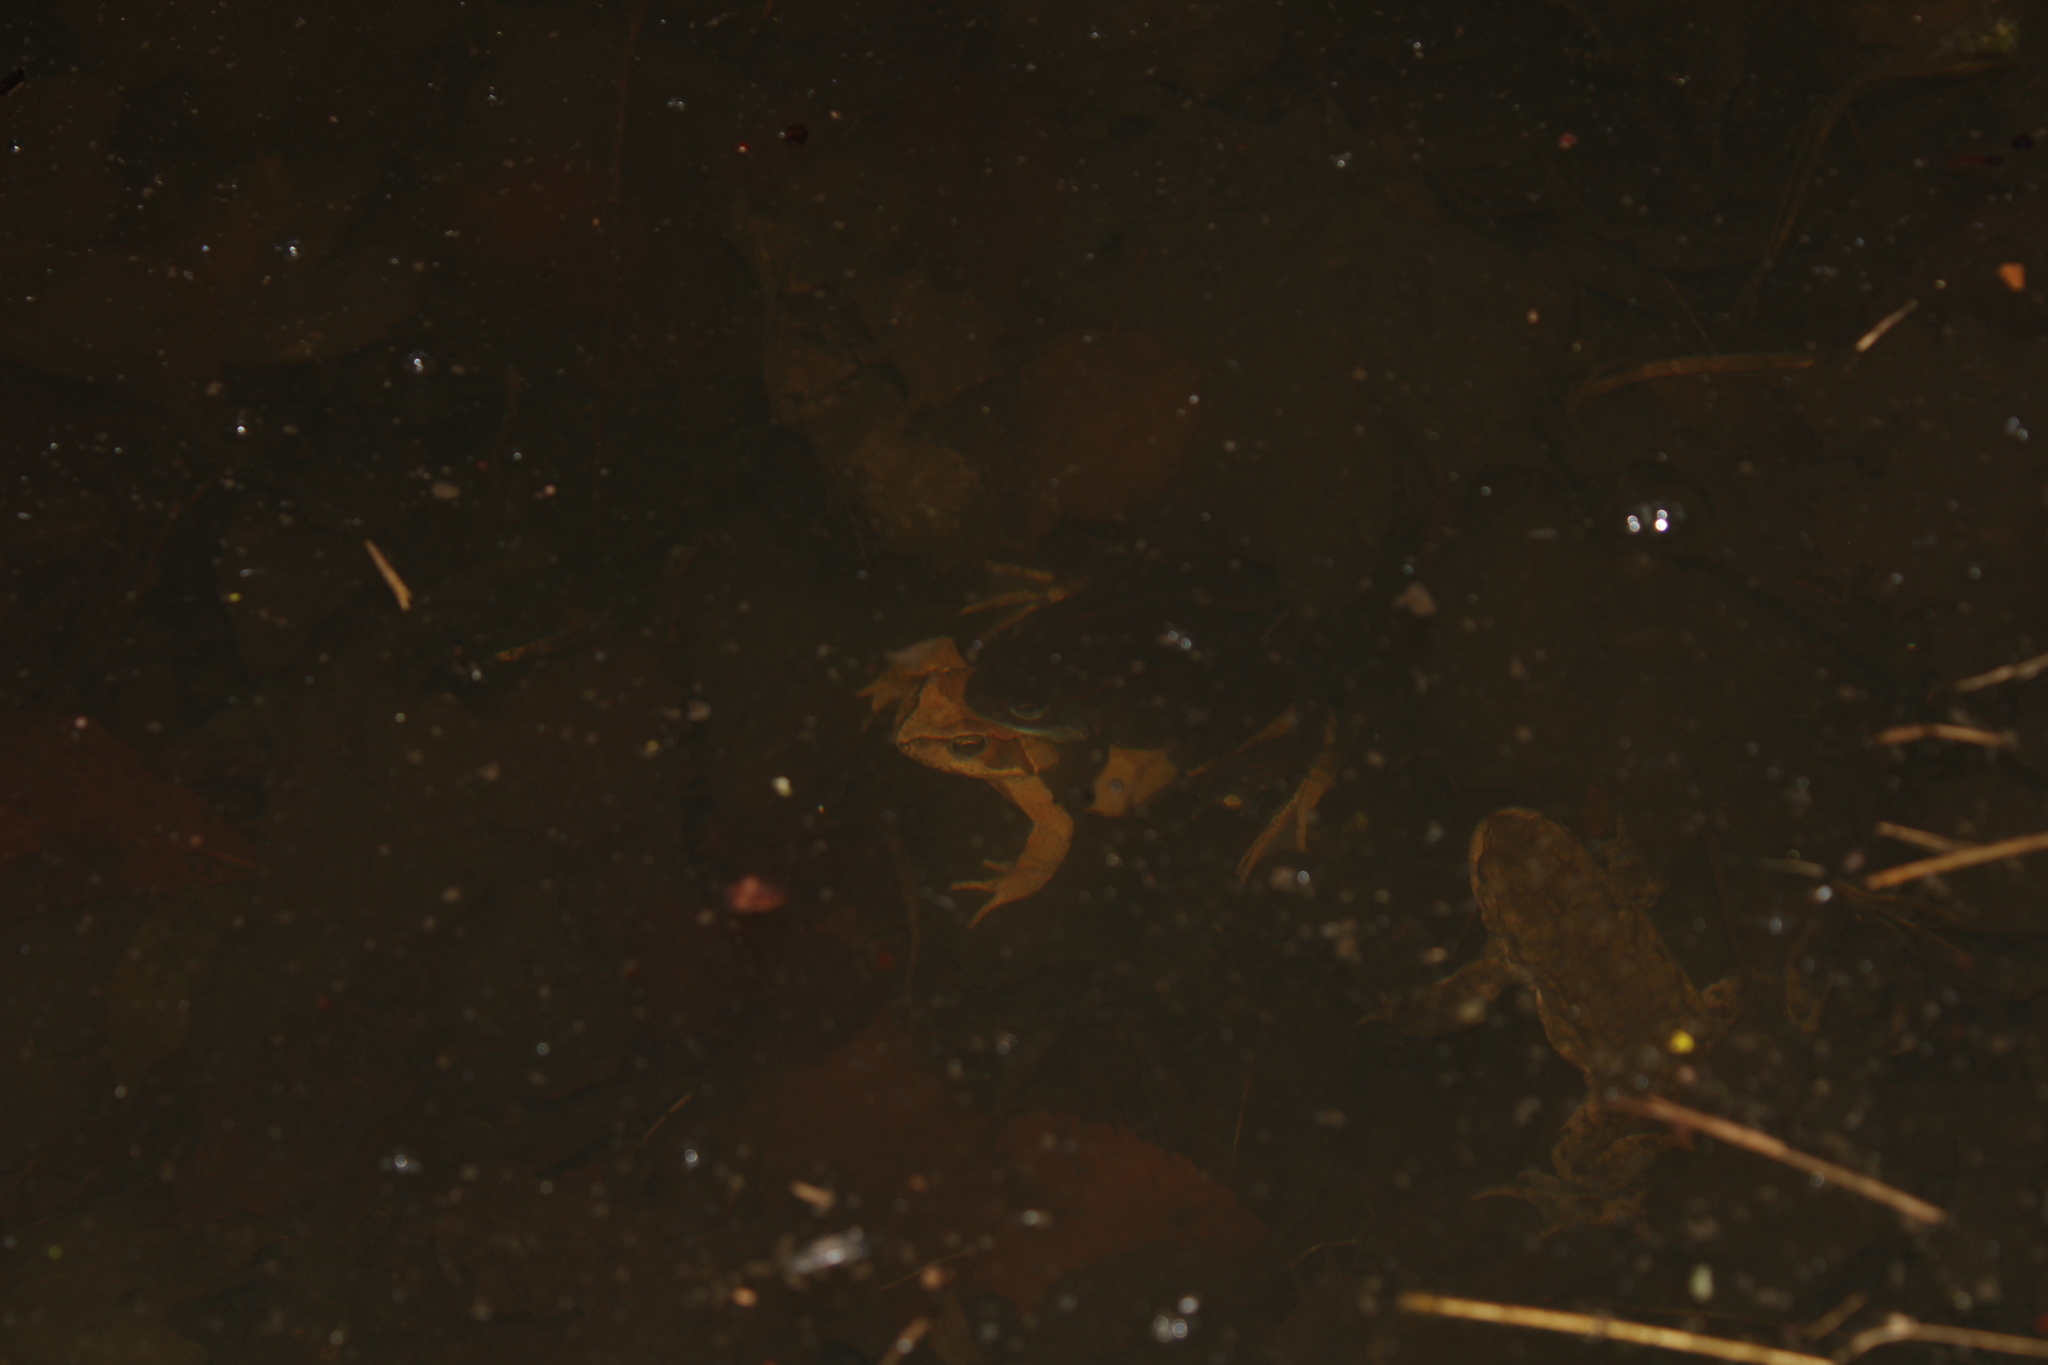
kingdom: Animalia
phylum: Chordata
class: Amphibia
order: Anura
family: Ranidae
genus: Rana
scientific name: Rana temporaria
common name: Common frog
